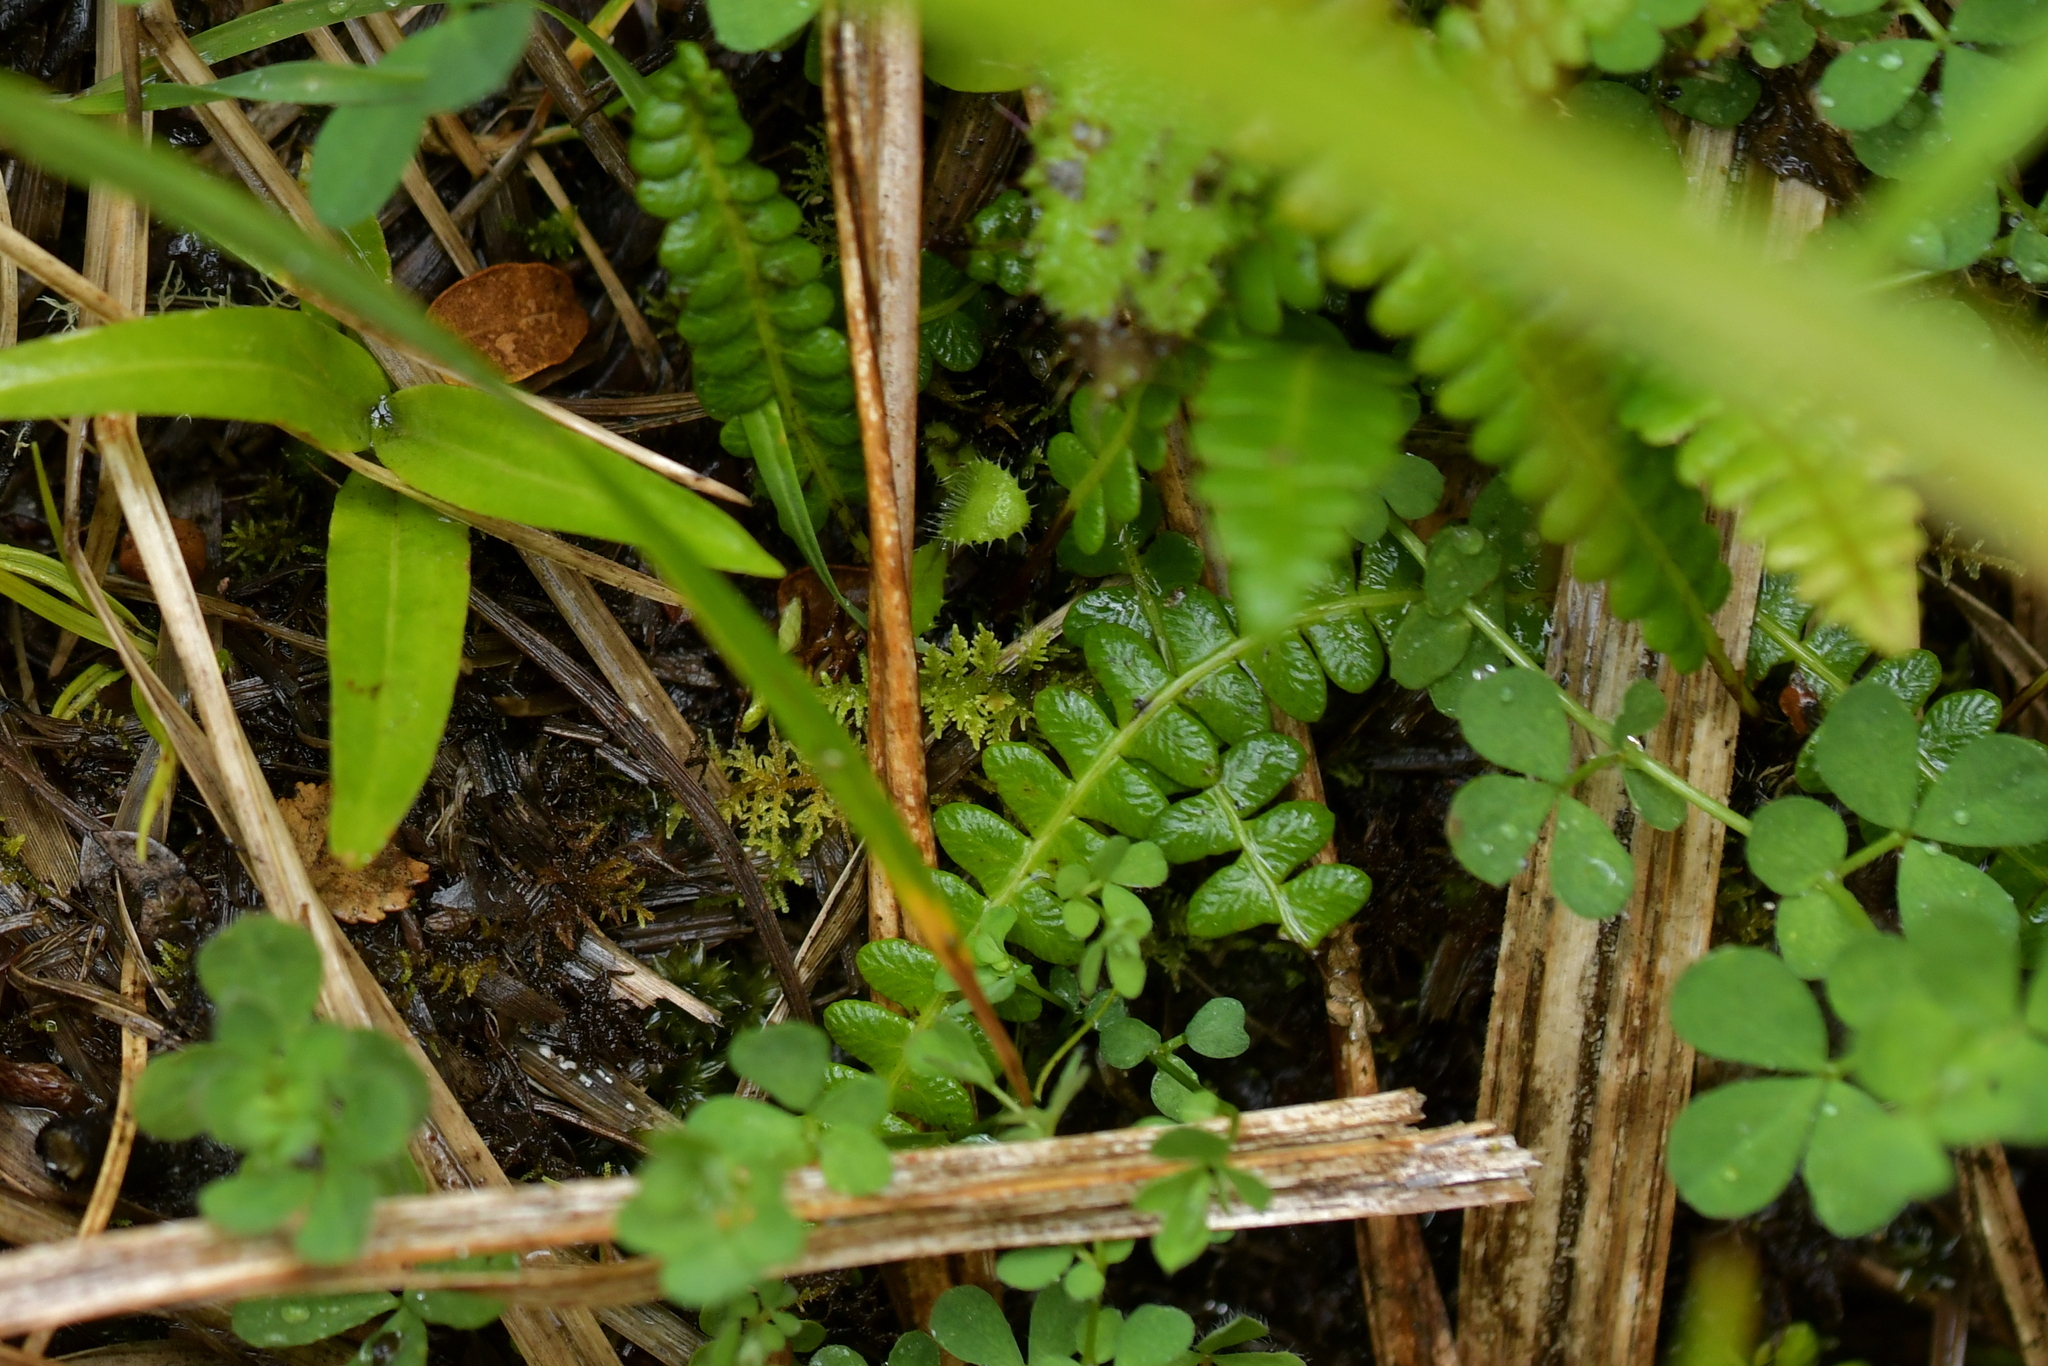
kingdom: Plantae
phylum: Tracheophyta
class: Polypodiopsida
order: Polypodiales
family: Blechnaceae
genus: Austroblechnum
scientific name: Austroblechnum penna-marina
